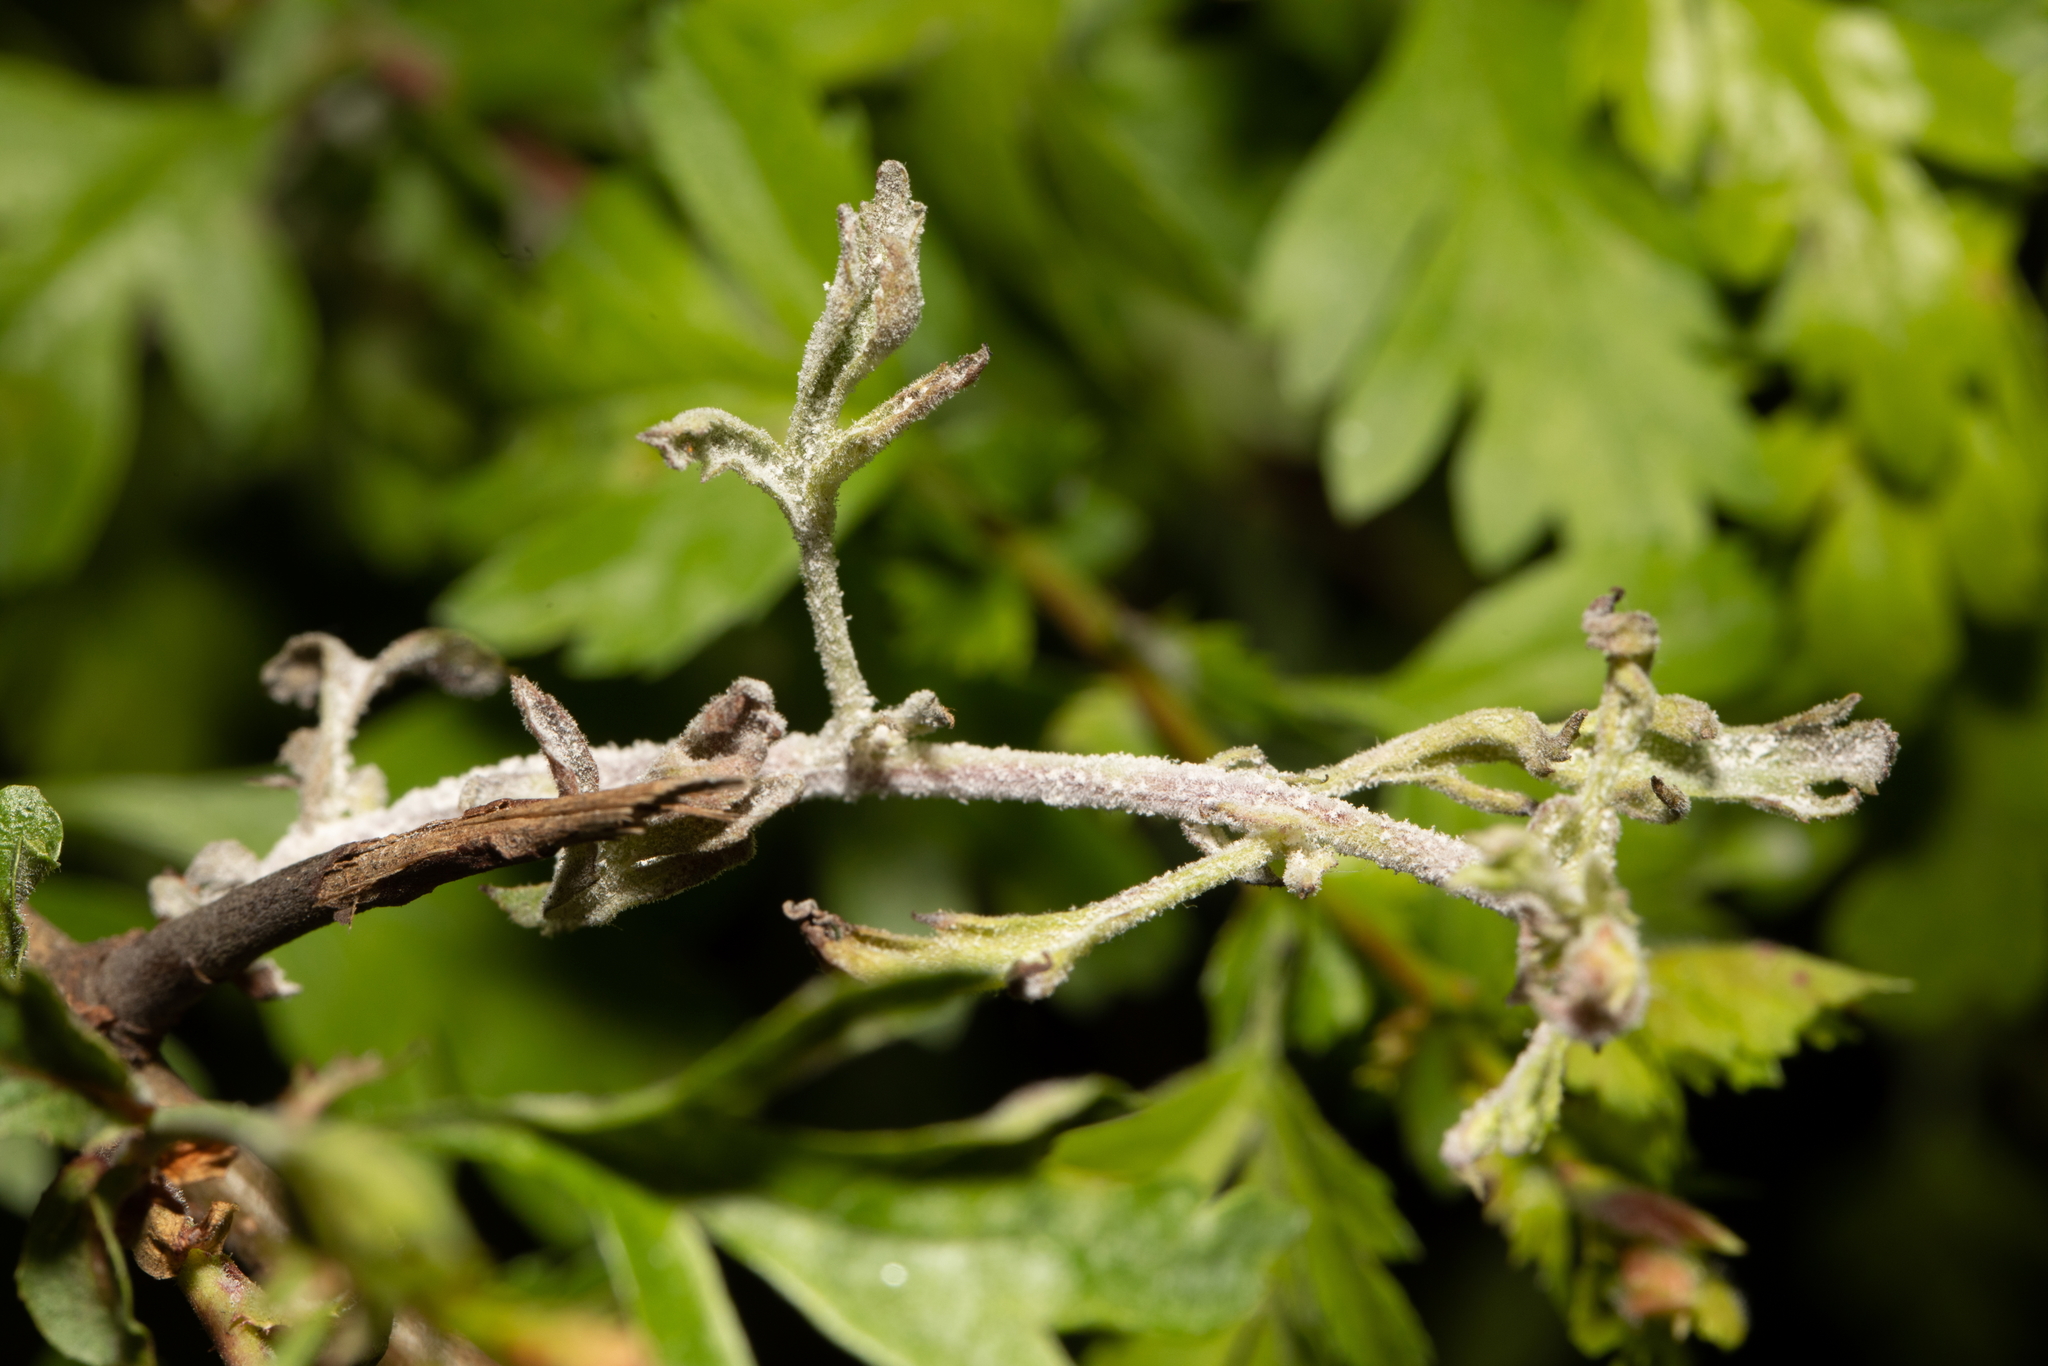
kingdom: Fungi
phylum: Ascomycota
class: Leotiomycetes
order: Helotiales
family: Erysiphaceae
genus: Podosphaera
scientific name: Podosphaera clandestina
